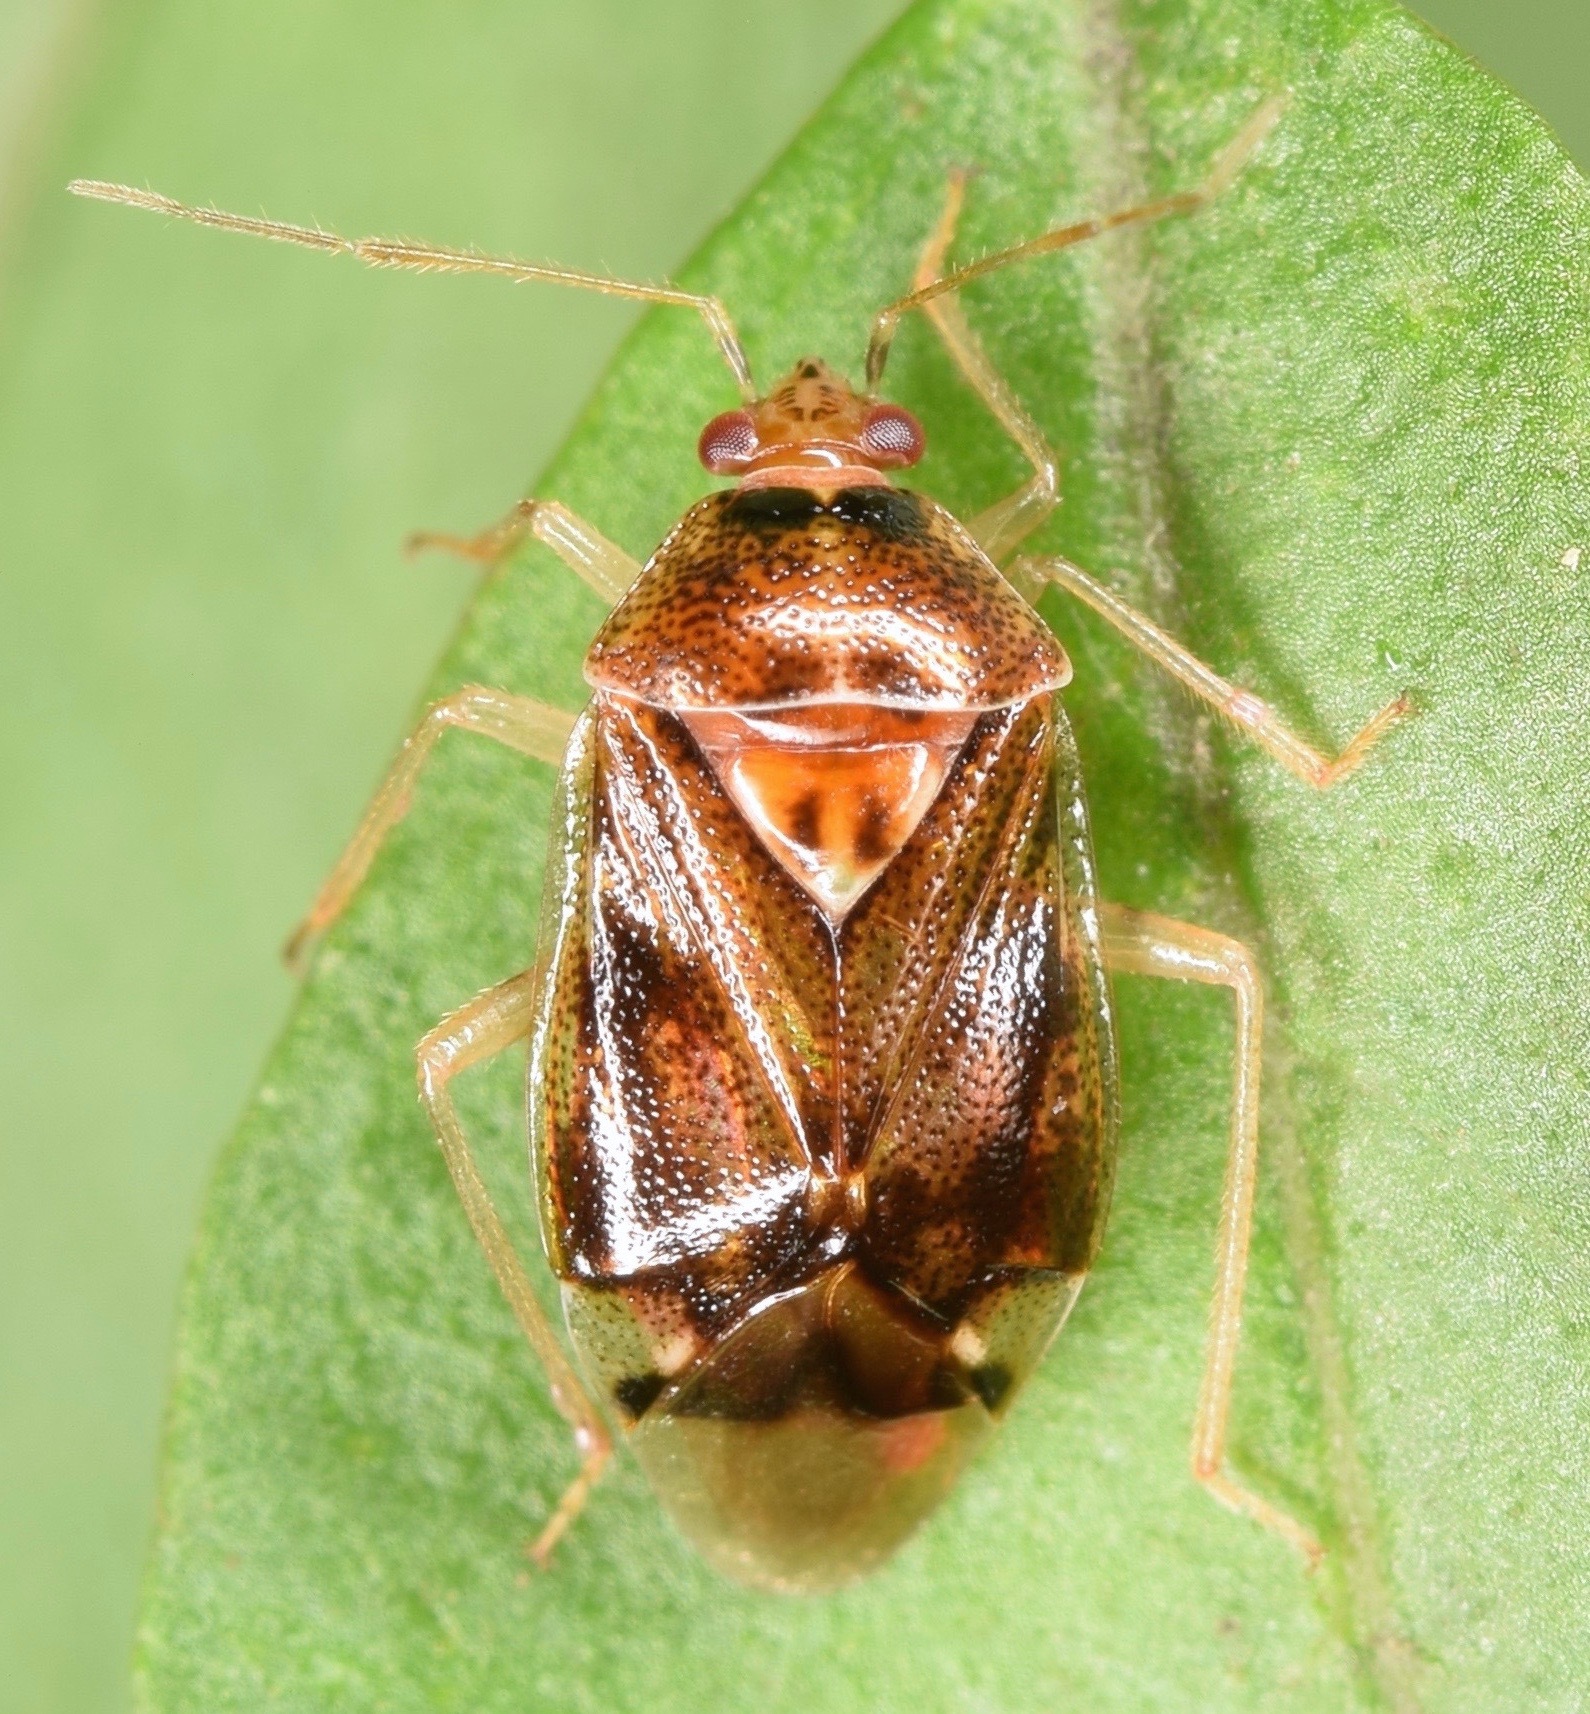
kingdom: Animalia
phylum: Arthropoda
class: Insecta
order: Hemiptera
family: Miridae
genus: Deraeocoris
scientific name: Deraeocoris
